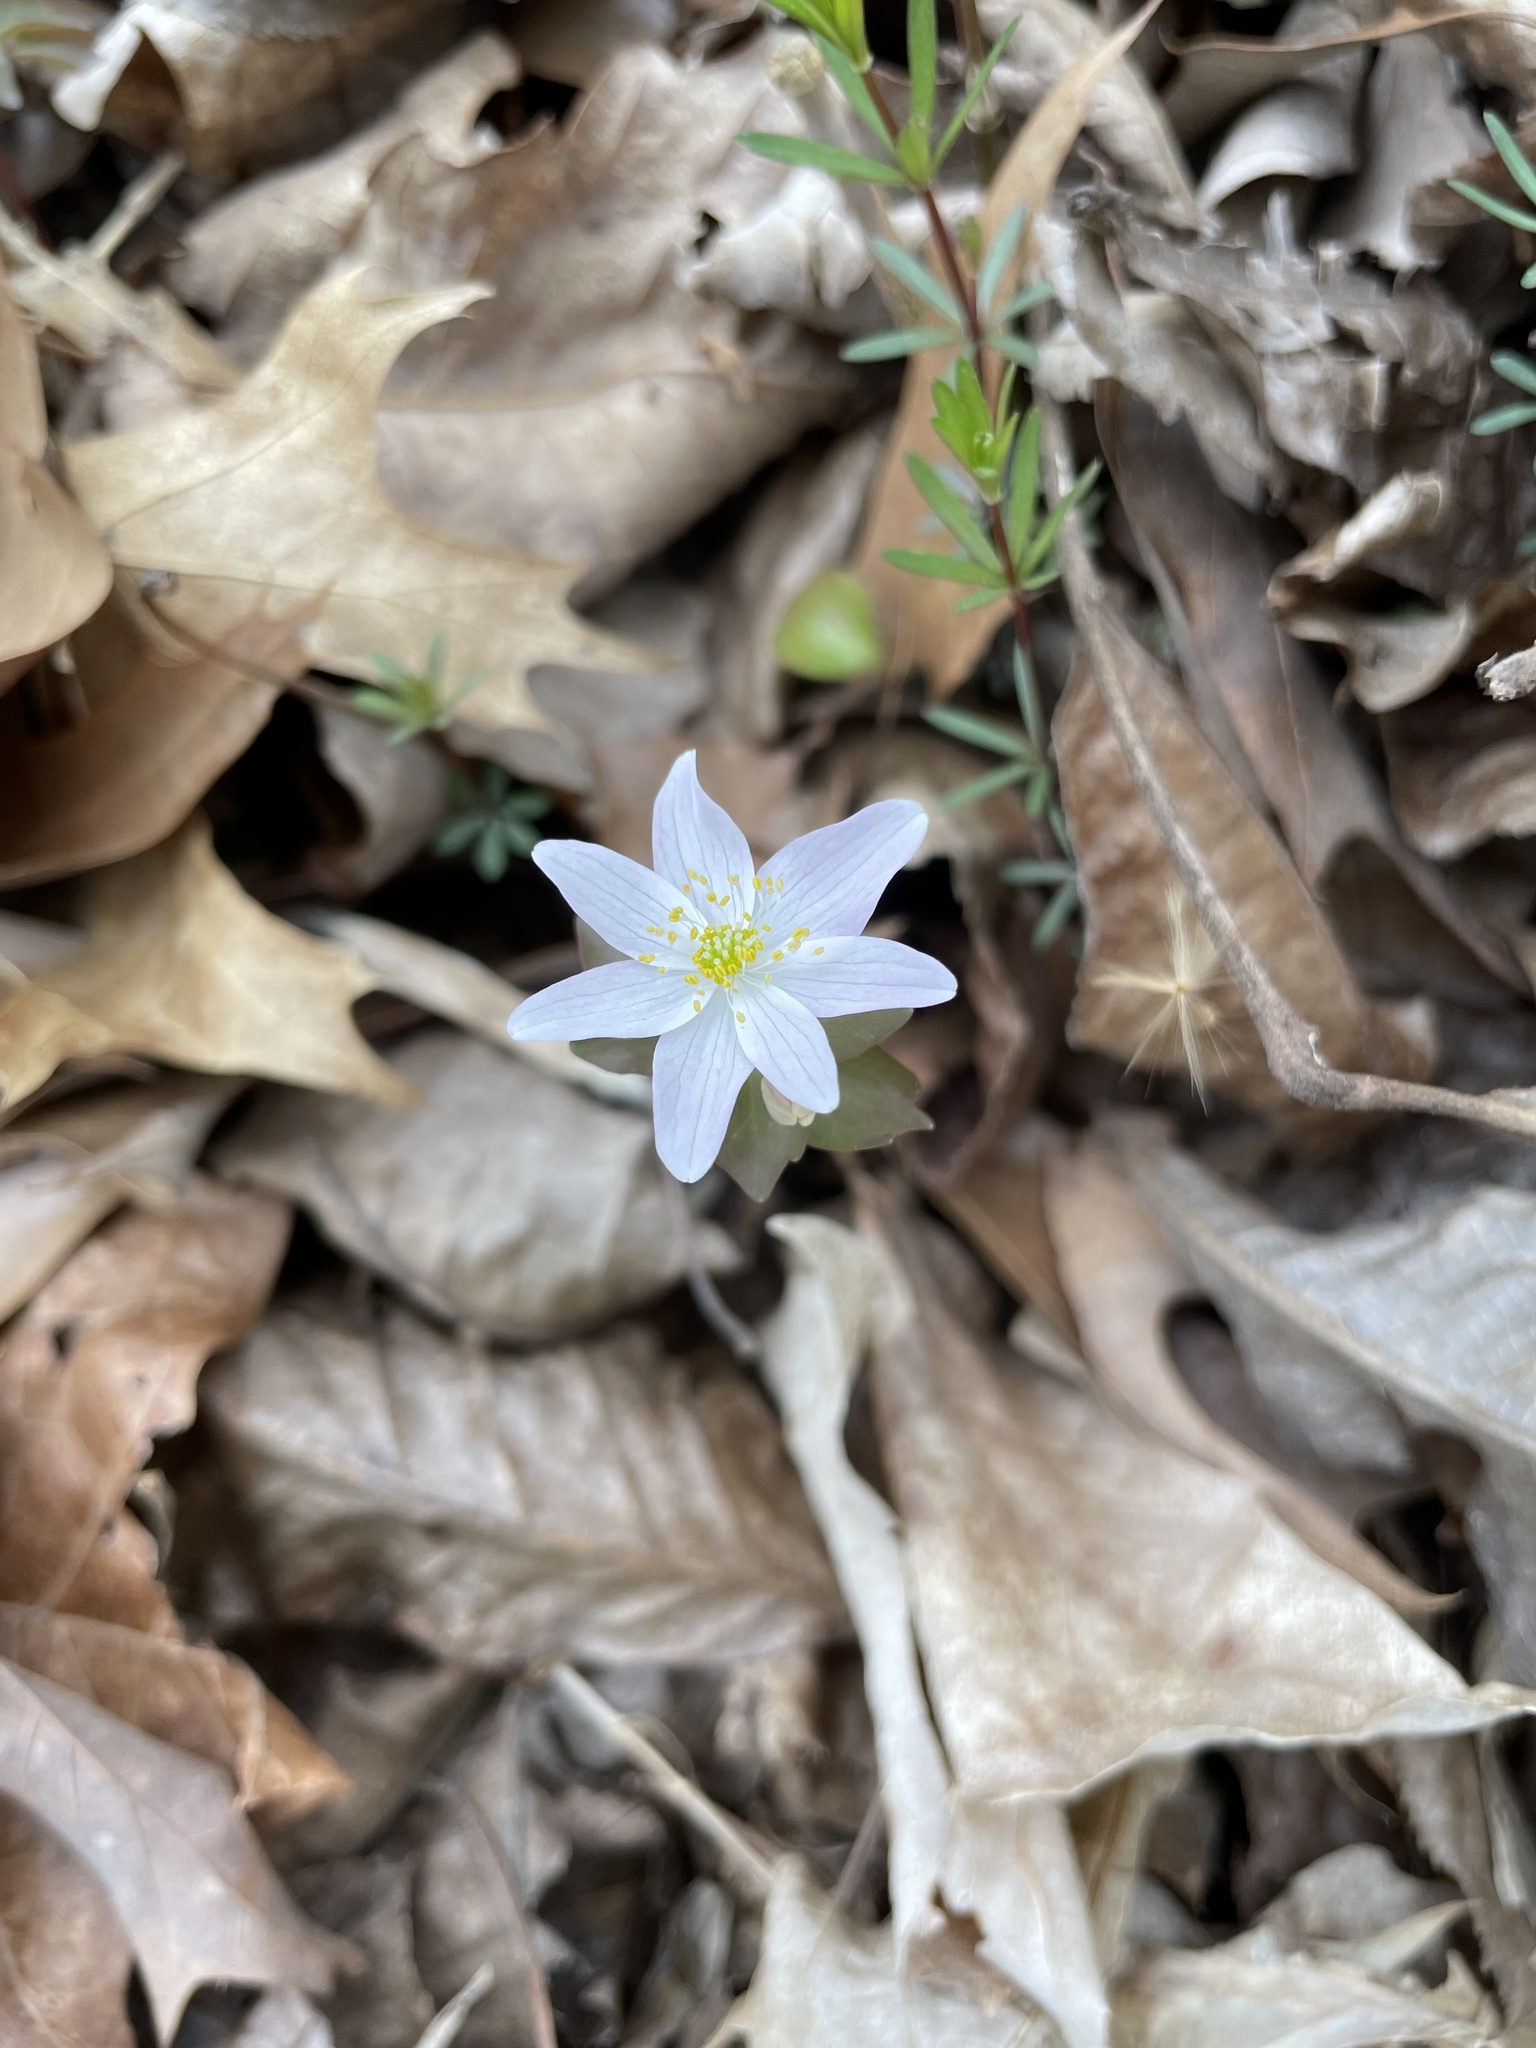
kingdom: Plantae
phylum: Tracheophyta
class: Magnoliopsida
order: Ranunculales
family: Ranunculaceae
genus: Thalictrum
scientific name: Thalictrum thalictroides
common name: Rue-anemone
